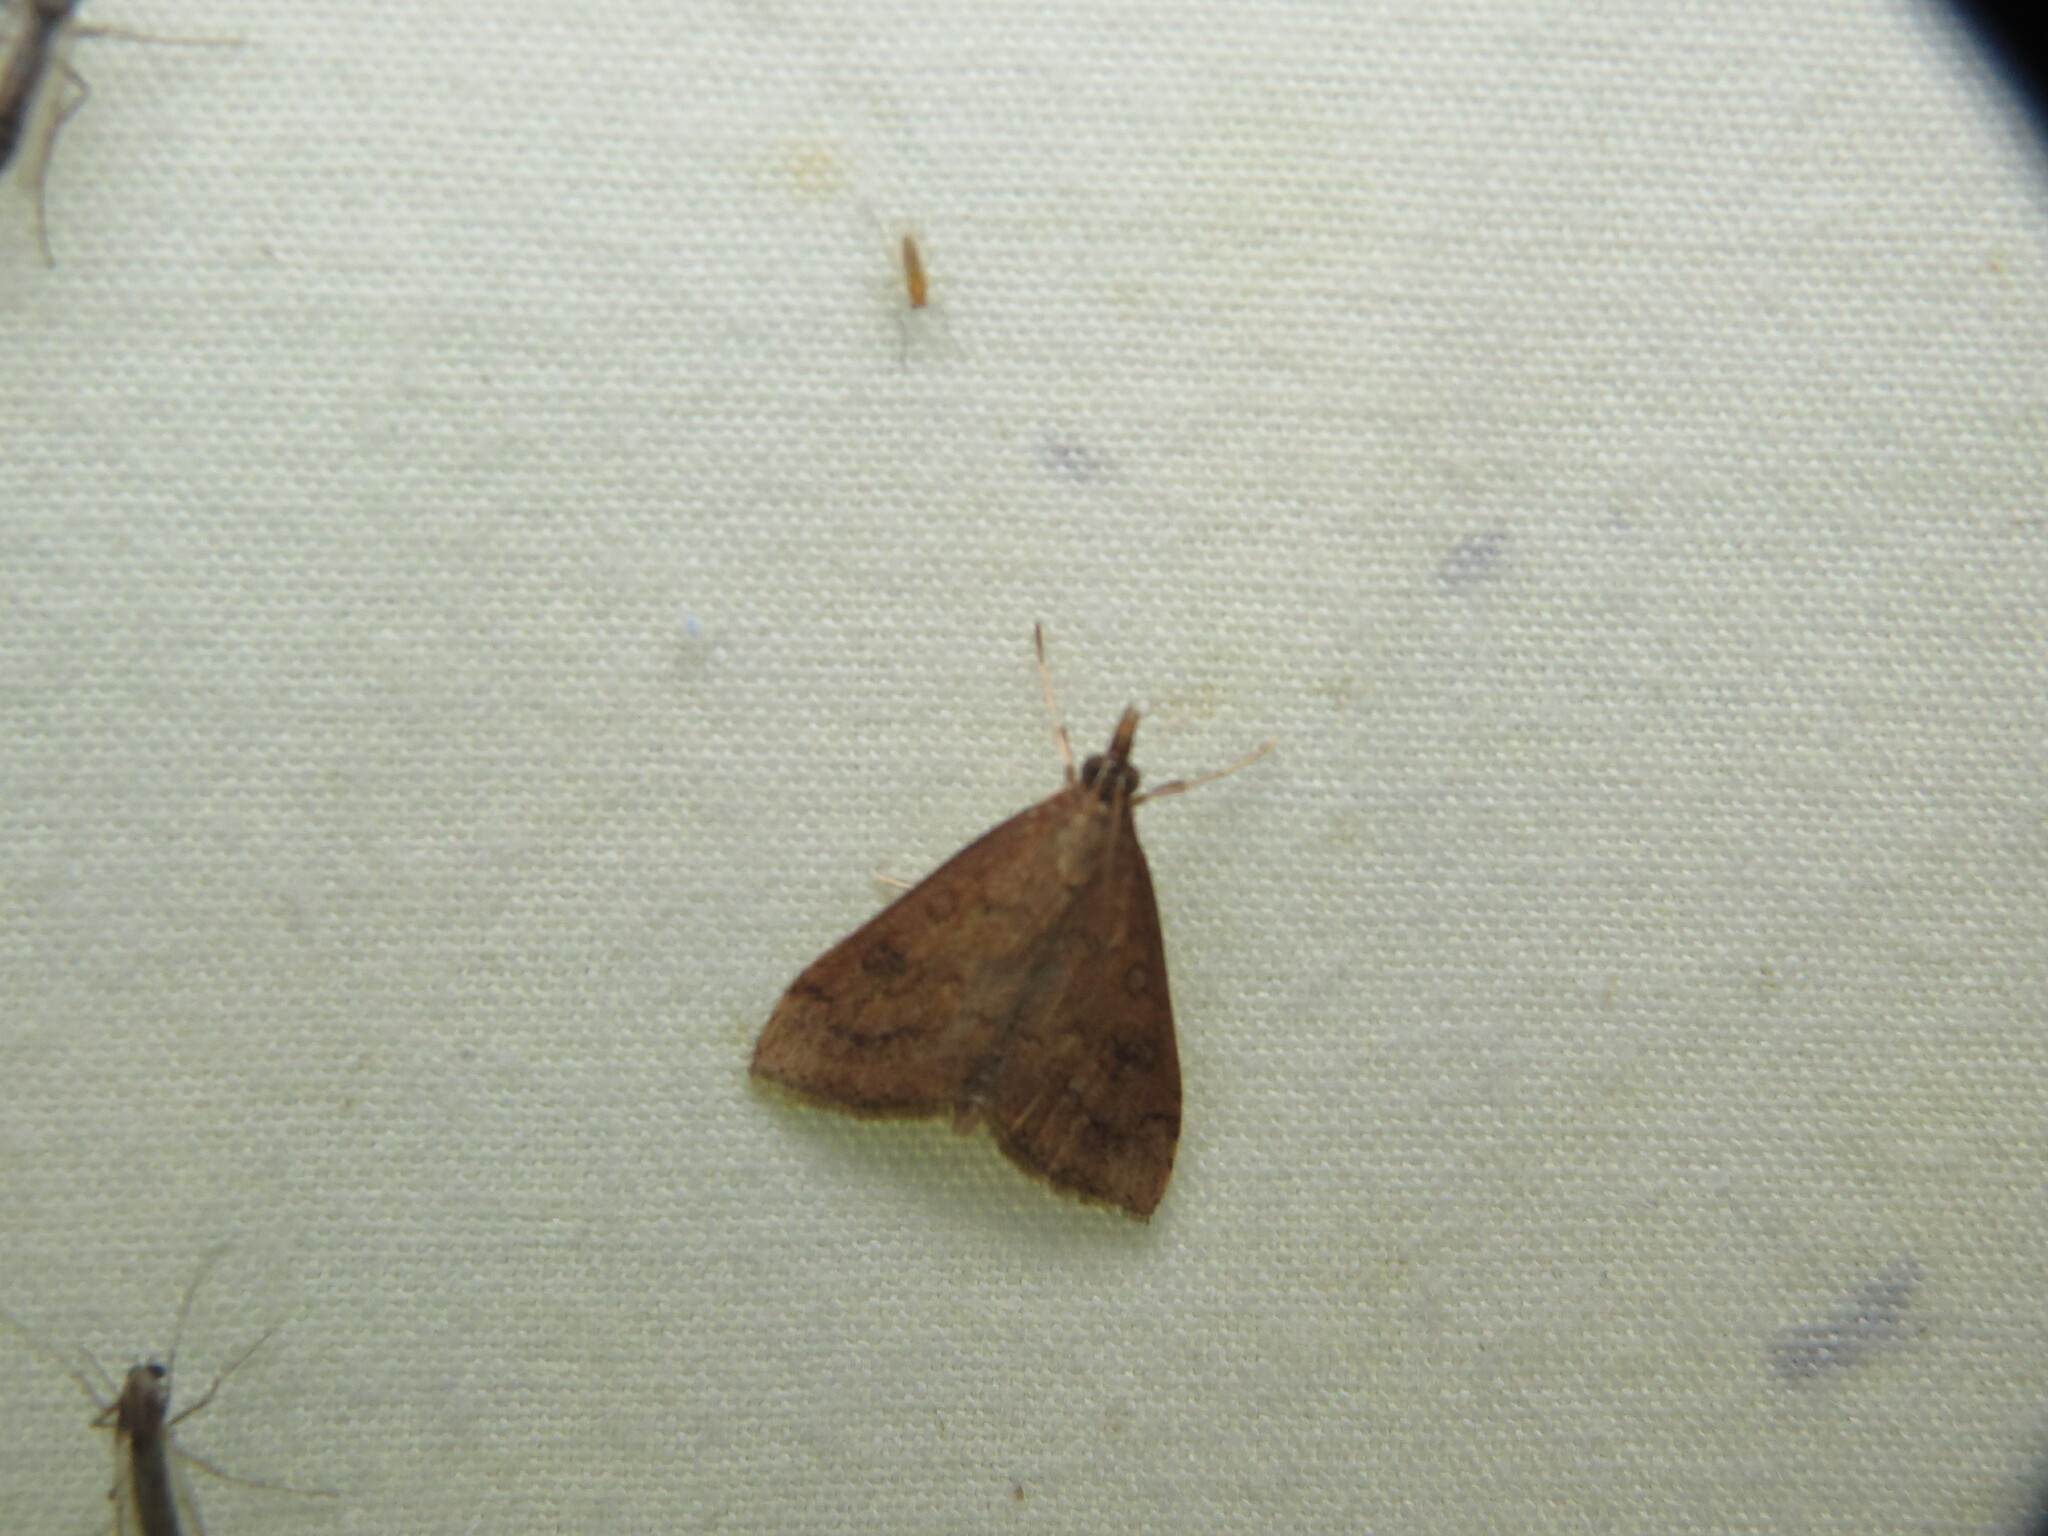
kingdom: Animalia
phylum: Arthropoda
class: Insecta
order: Lepidoptera
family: Crambidae
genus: Udea
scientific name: Udea rubigalis
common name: Celery leaftier moth
